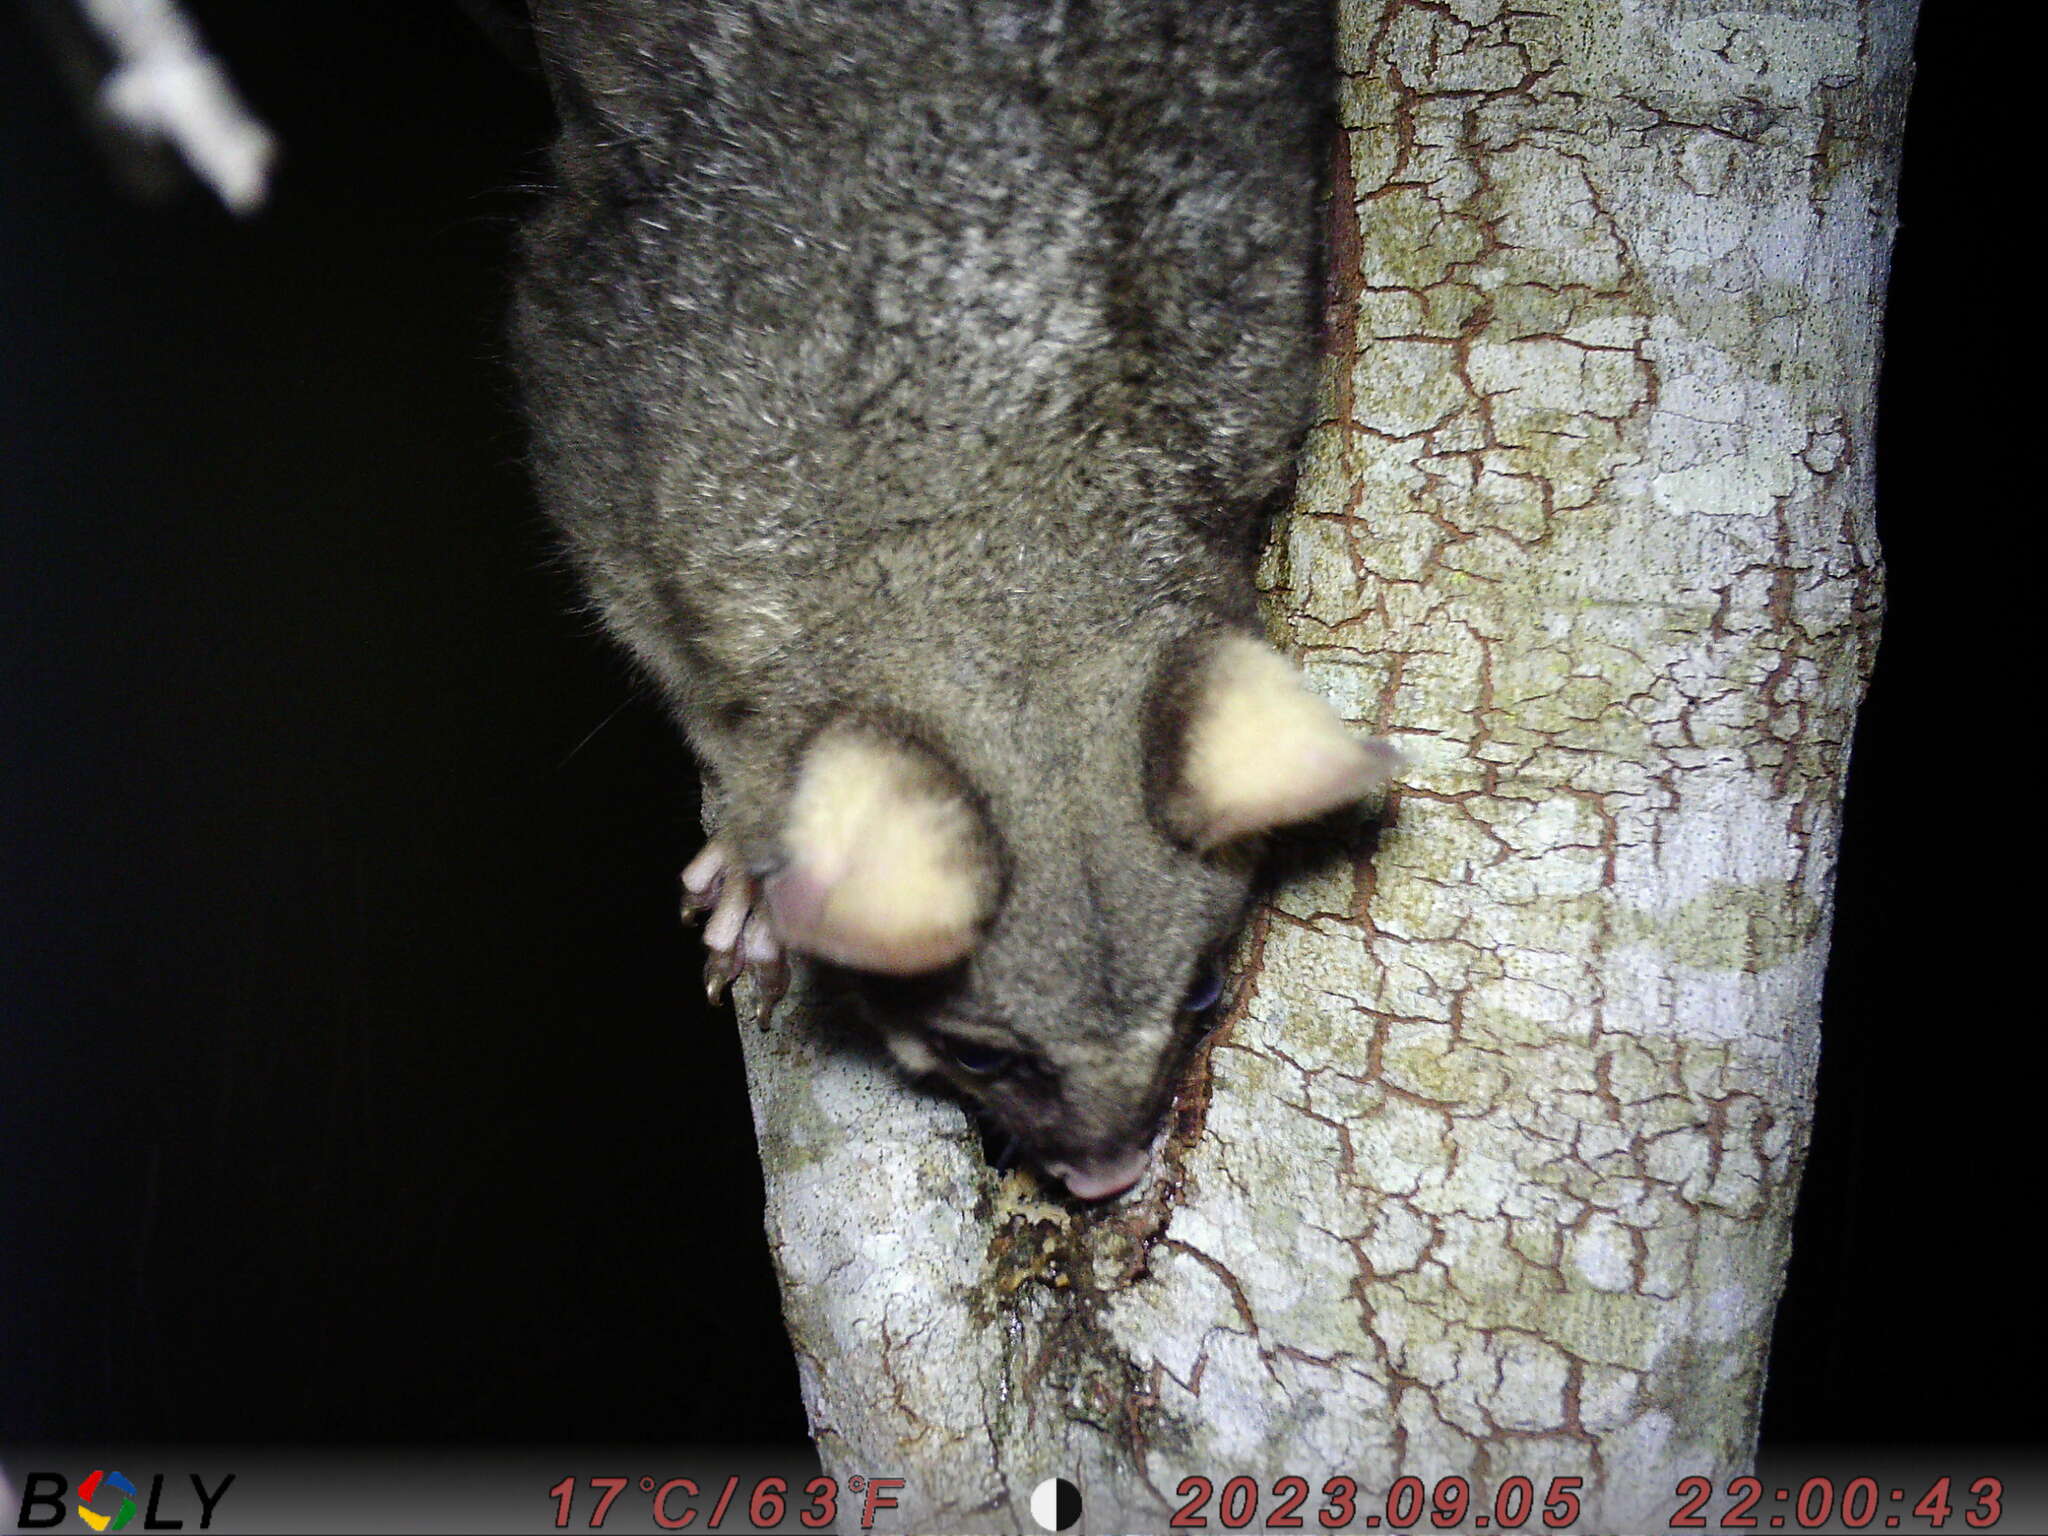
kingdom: Animalia
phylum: Chordata
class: Mammalia
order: Diprotodontia
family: Phalangeridae
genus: Trichosurus
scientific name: Trichosurus vulpecula
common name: Common brushtail
